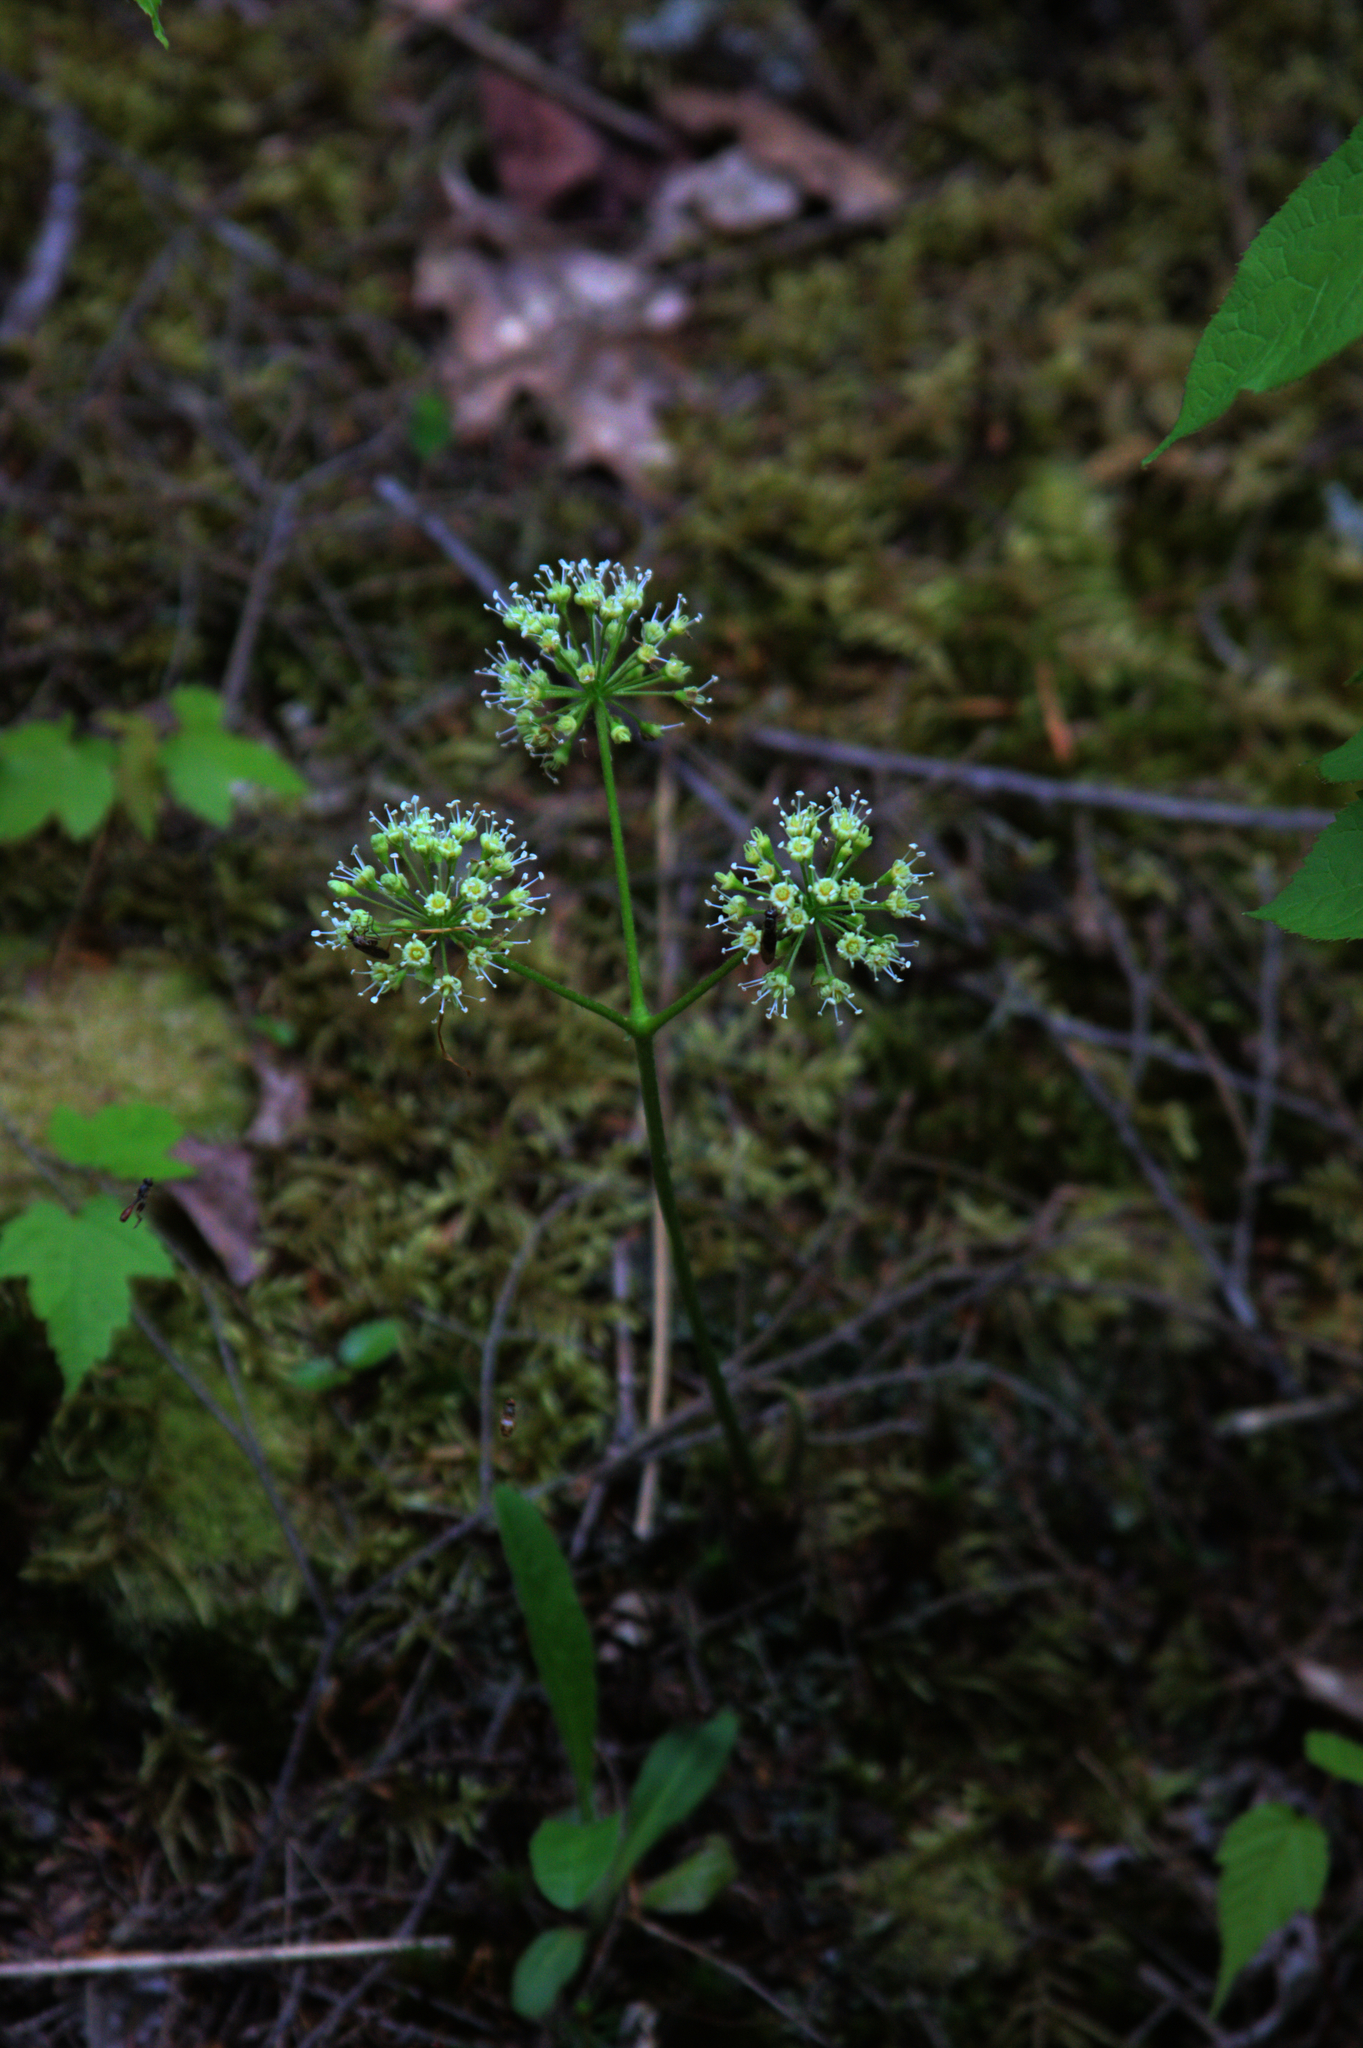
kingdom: Plantae
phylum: Tracheophyta
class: Magnoliopsida
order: Apiales
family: Araliaceae
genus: Aralia
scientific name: Aralia nudicaulis
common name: Wild sarsaparilla
